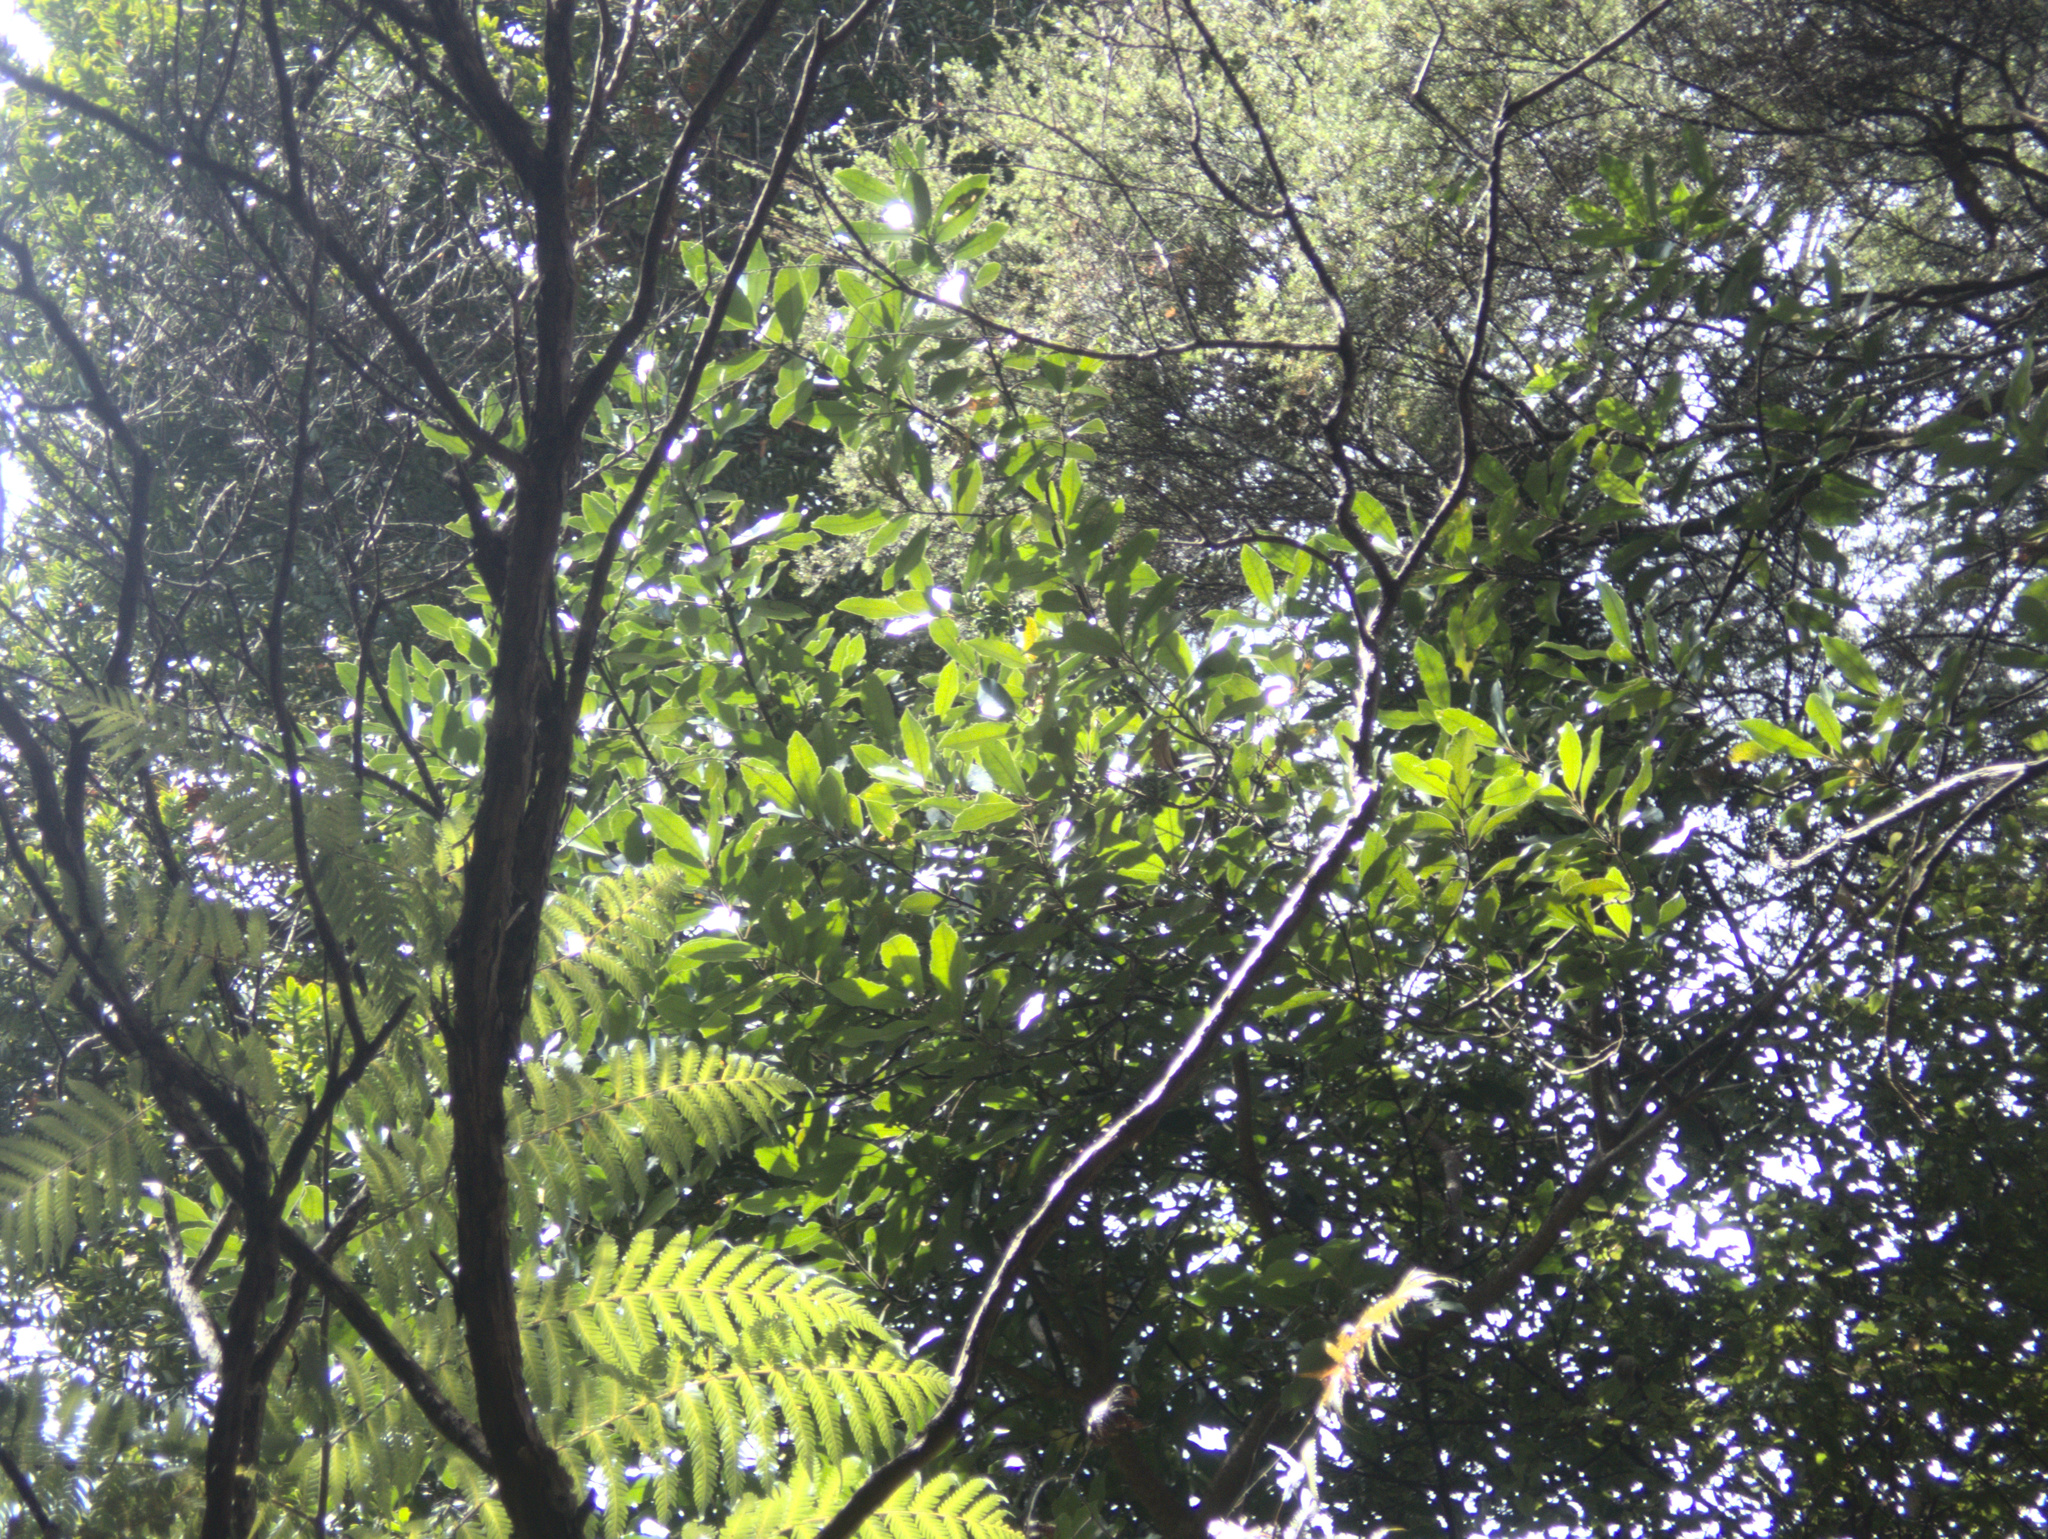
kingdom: Plantae
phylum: Tracheophyta
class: Magnoliopsida
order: Laurales
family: Monimiaceae
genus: Hedycarya
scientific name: Hedycarya arborea
